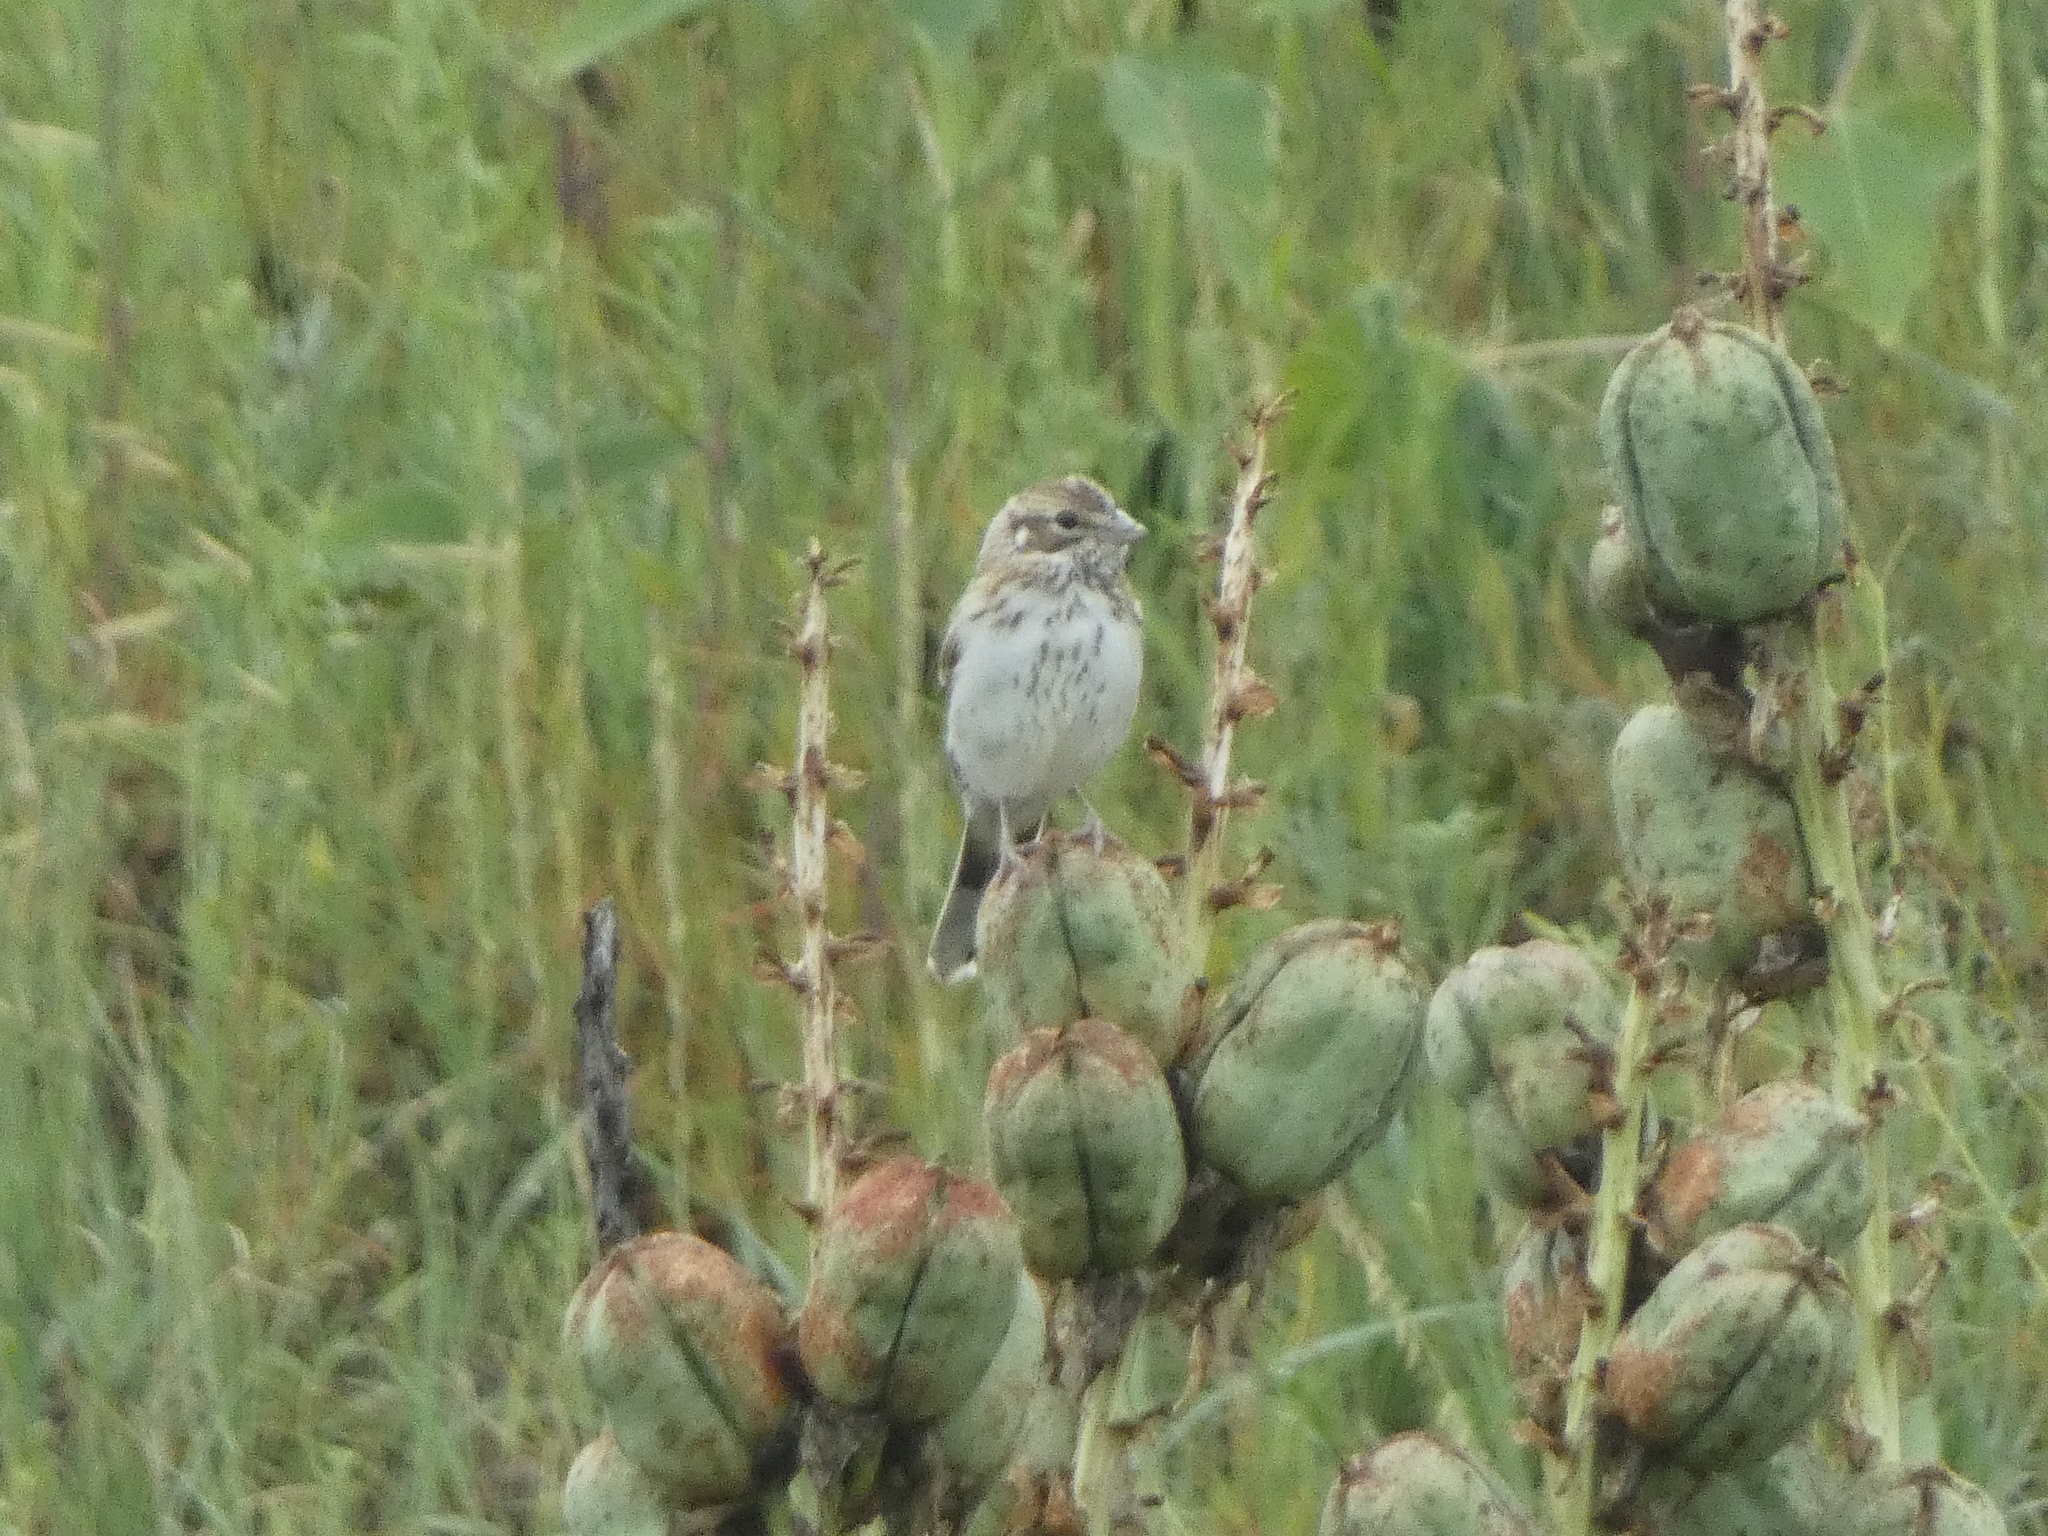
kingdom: Animalia
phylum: Chordata
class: Aves
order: Passeriformes
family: Passerellidae
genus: Calamospiza
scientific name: Calamospiza melanocorys
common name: Lark bunting
